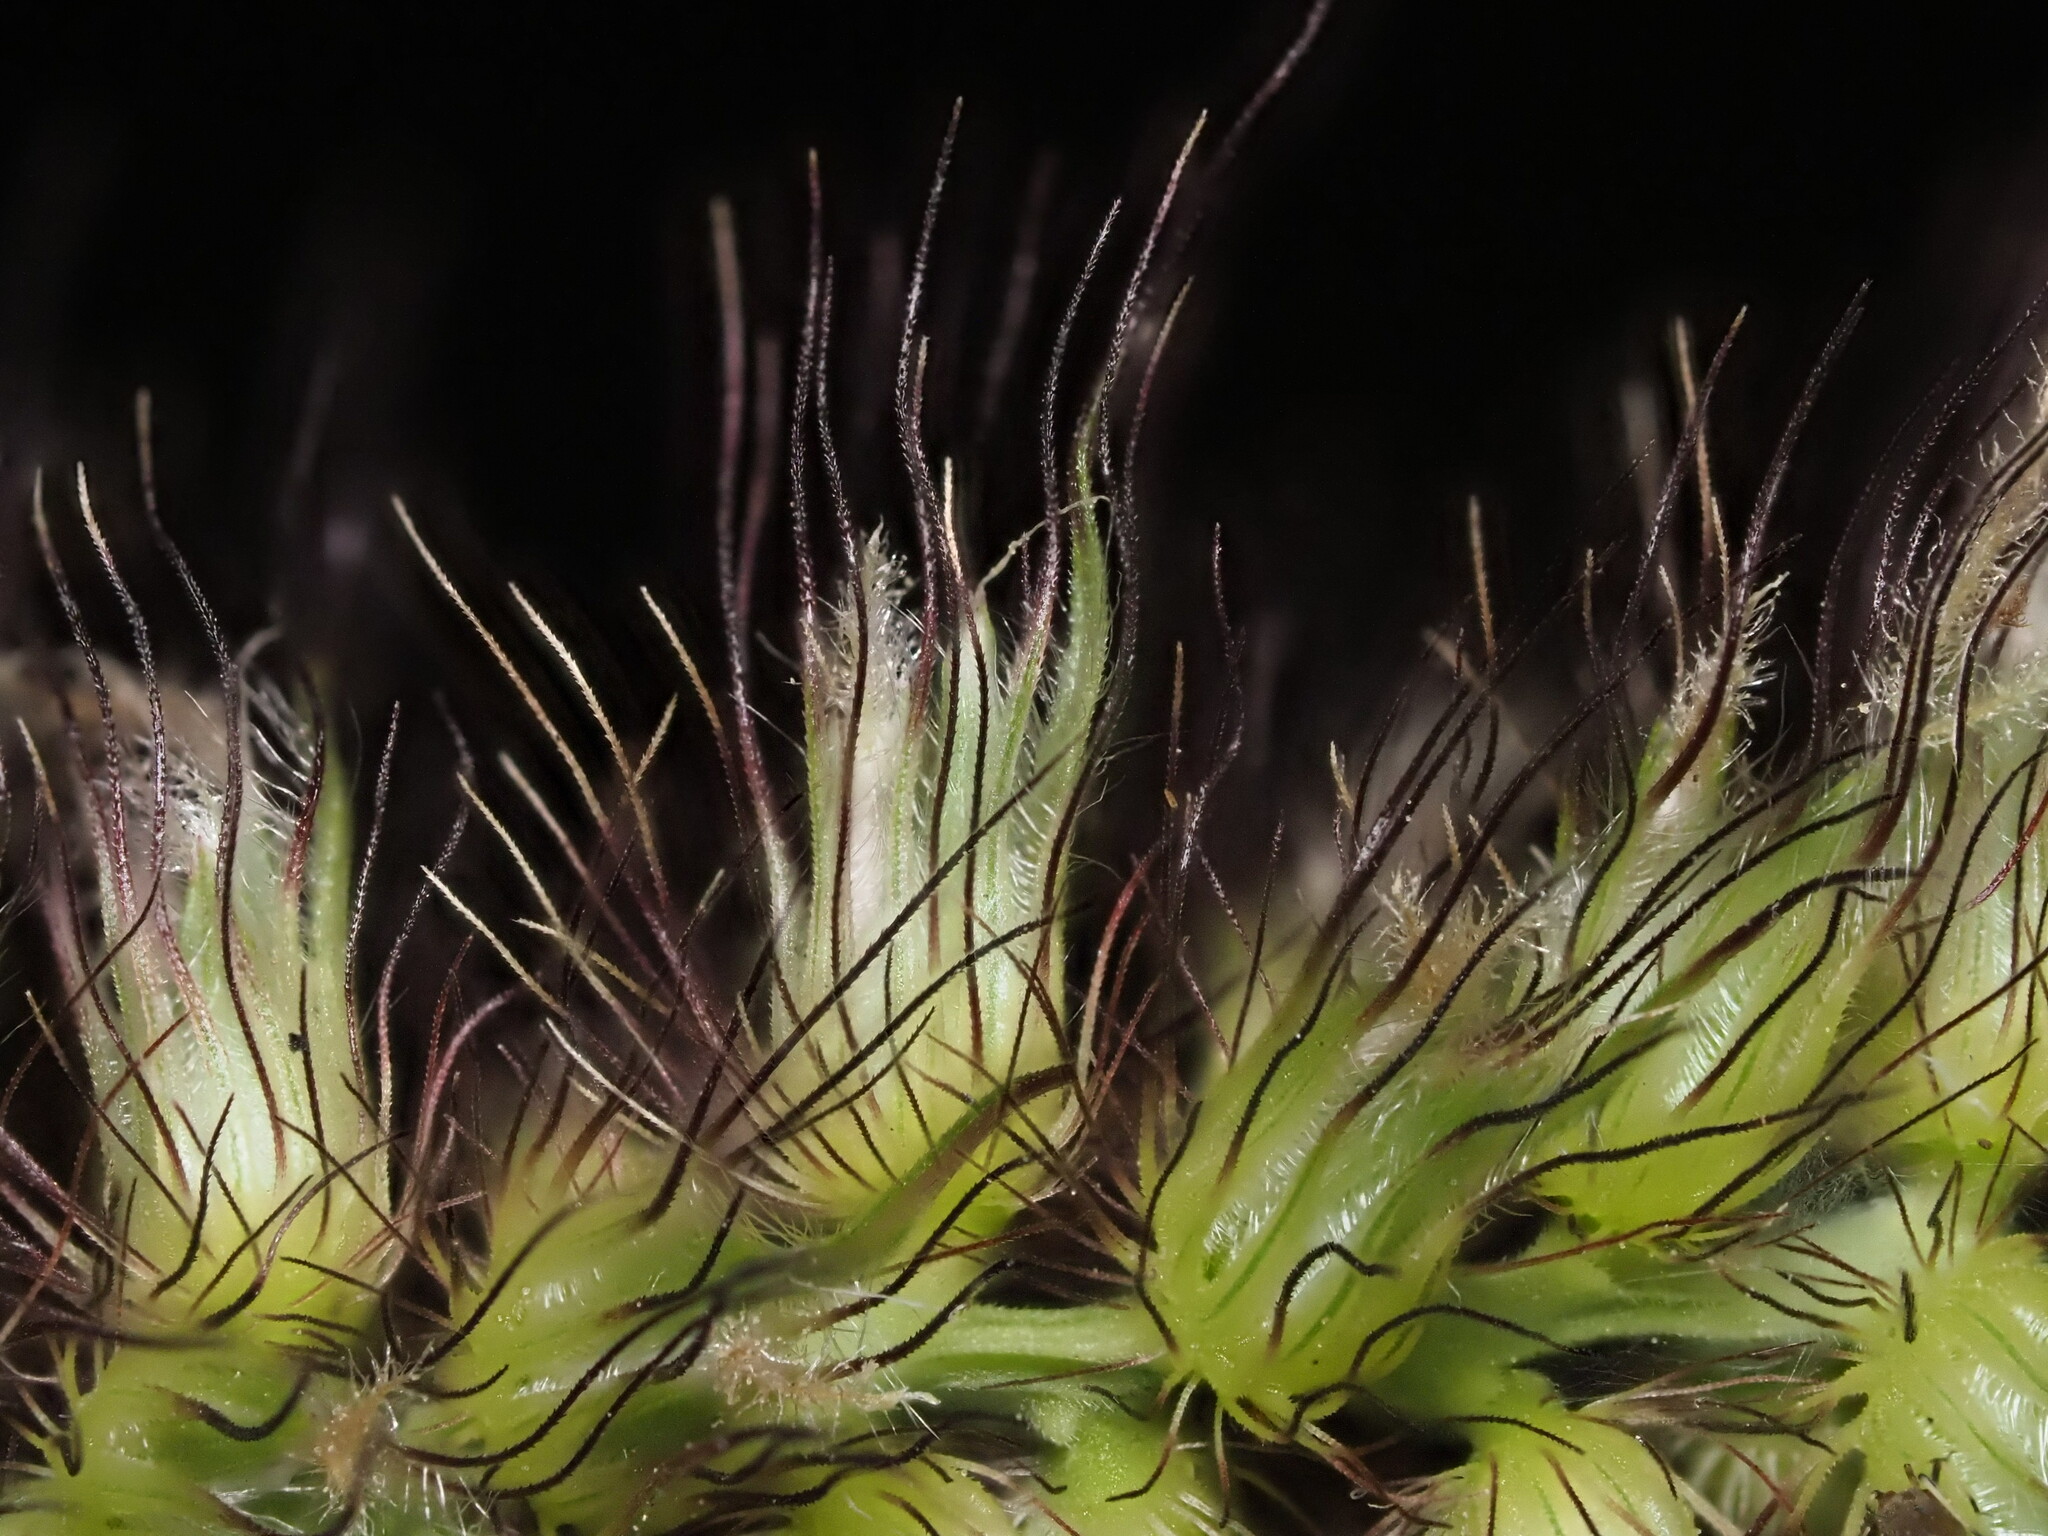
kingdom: Plantae
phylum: Tracheophyta
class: Liliopsida
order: Poales
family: Poaceae
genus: Cenchrus
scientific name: Cenchrus ciliaris
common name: Buffelgrass
